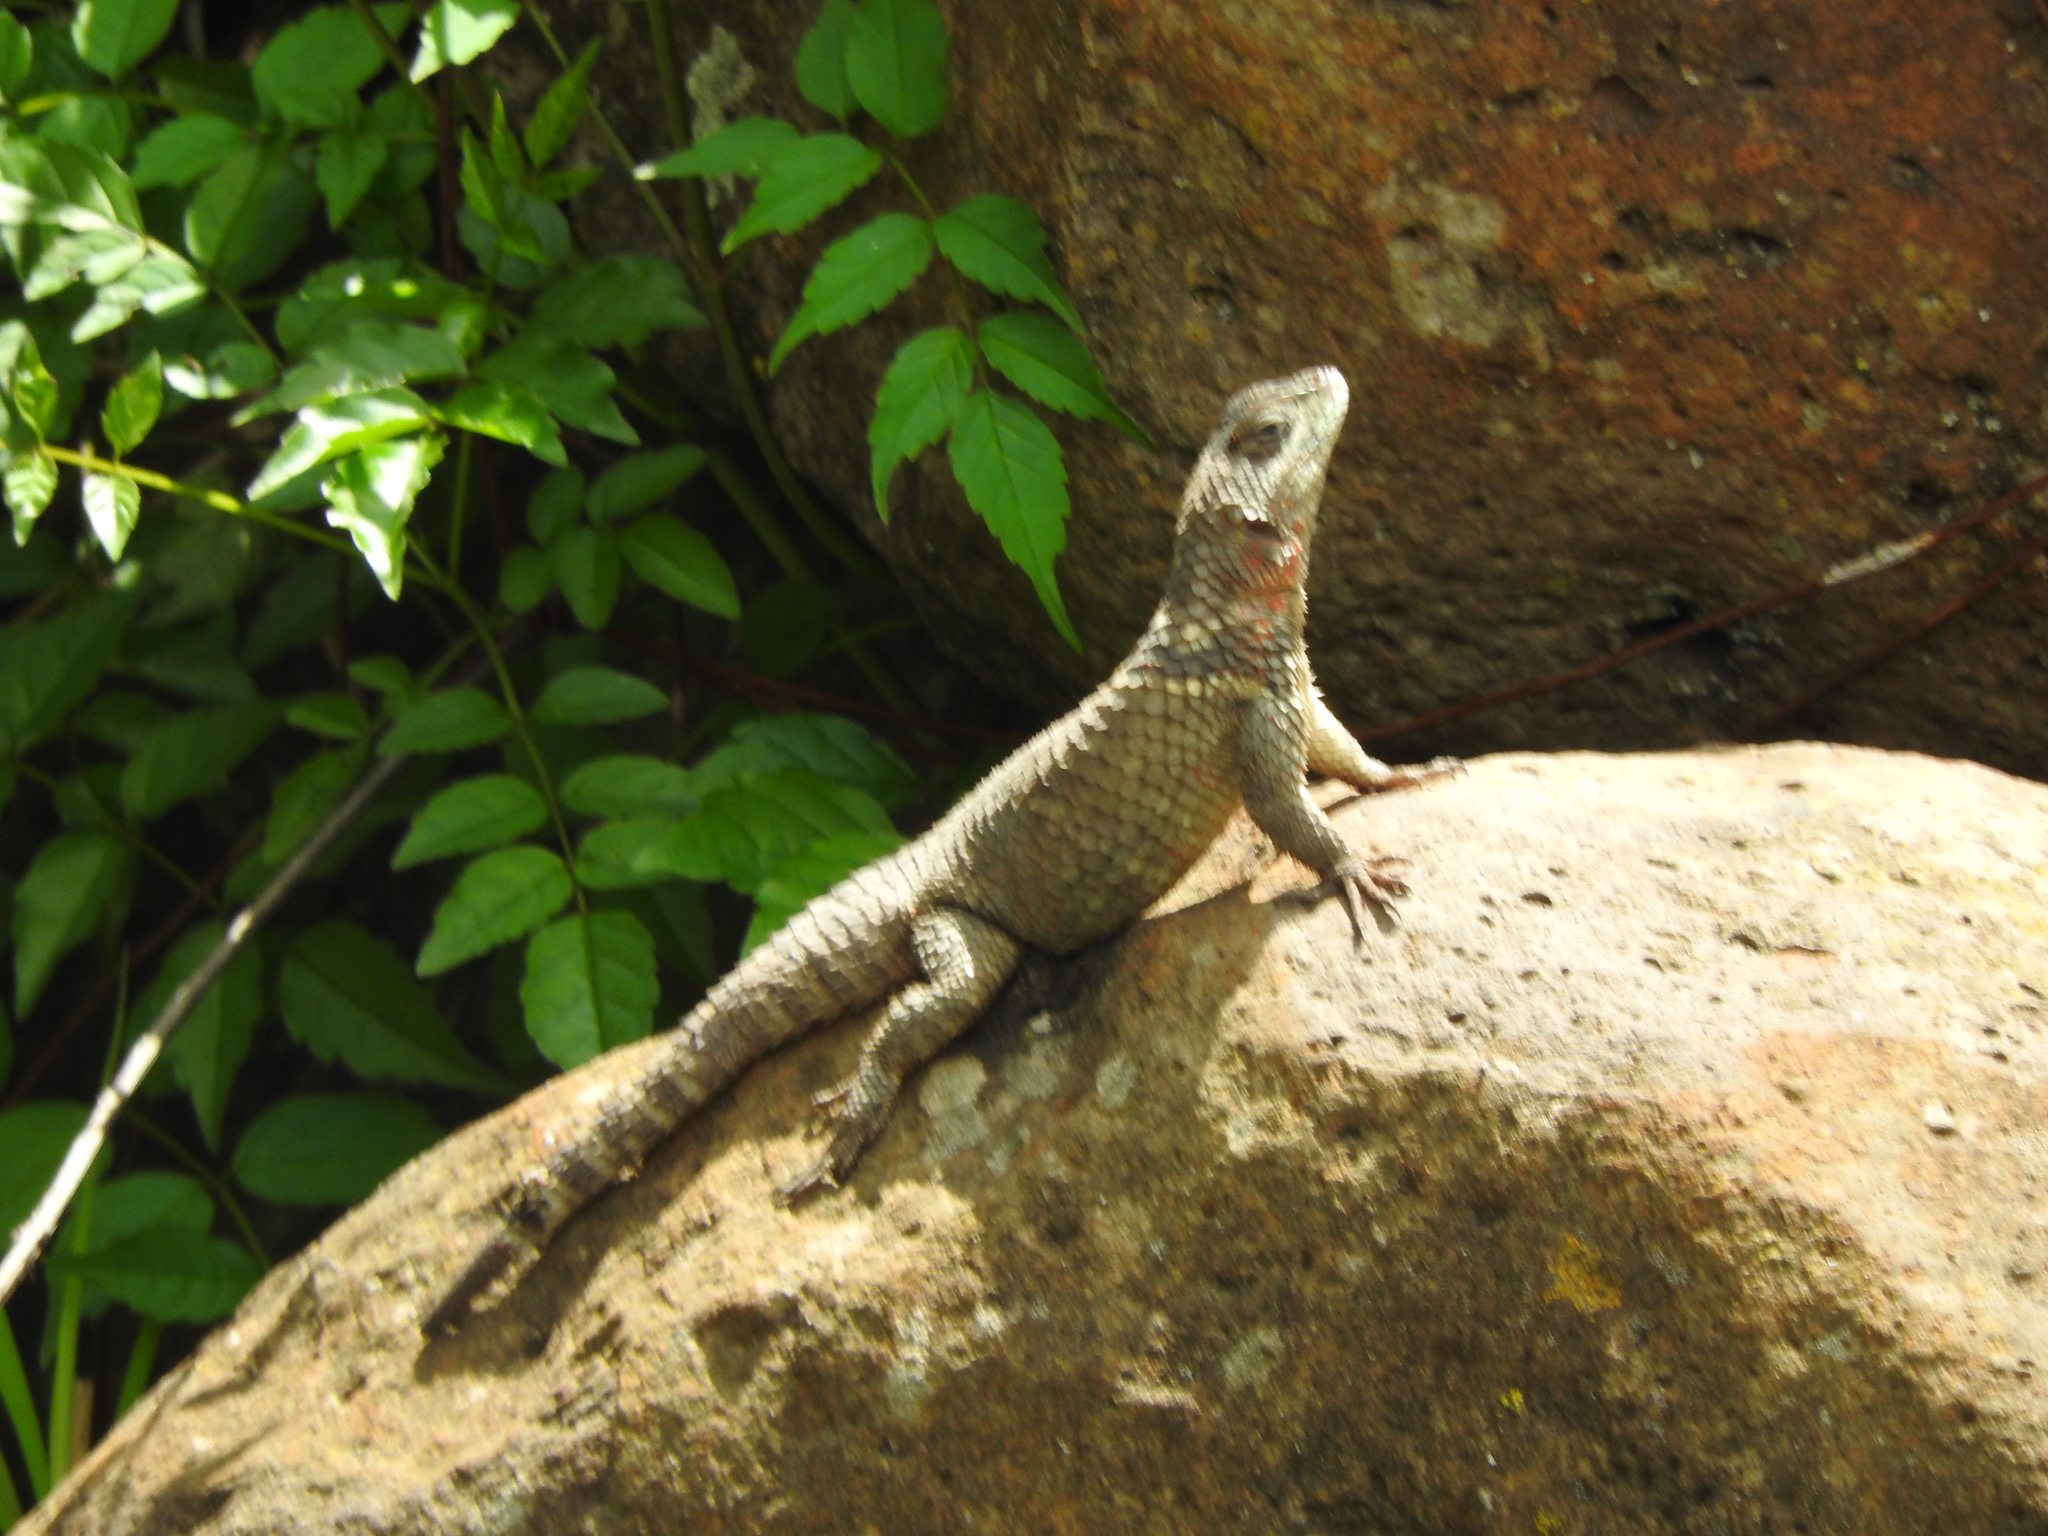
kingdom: Animalia
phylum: Chordata
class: Squamata
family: Phrynosomatidae
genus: Sceloporus
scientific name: Sceloporus torquatus
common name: Central plateau torquate lizard [melanogaster]
